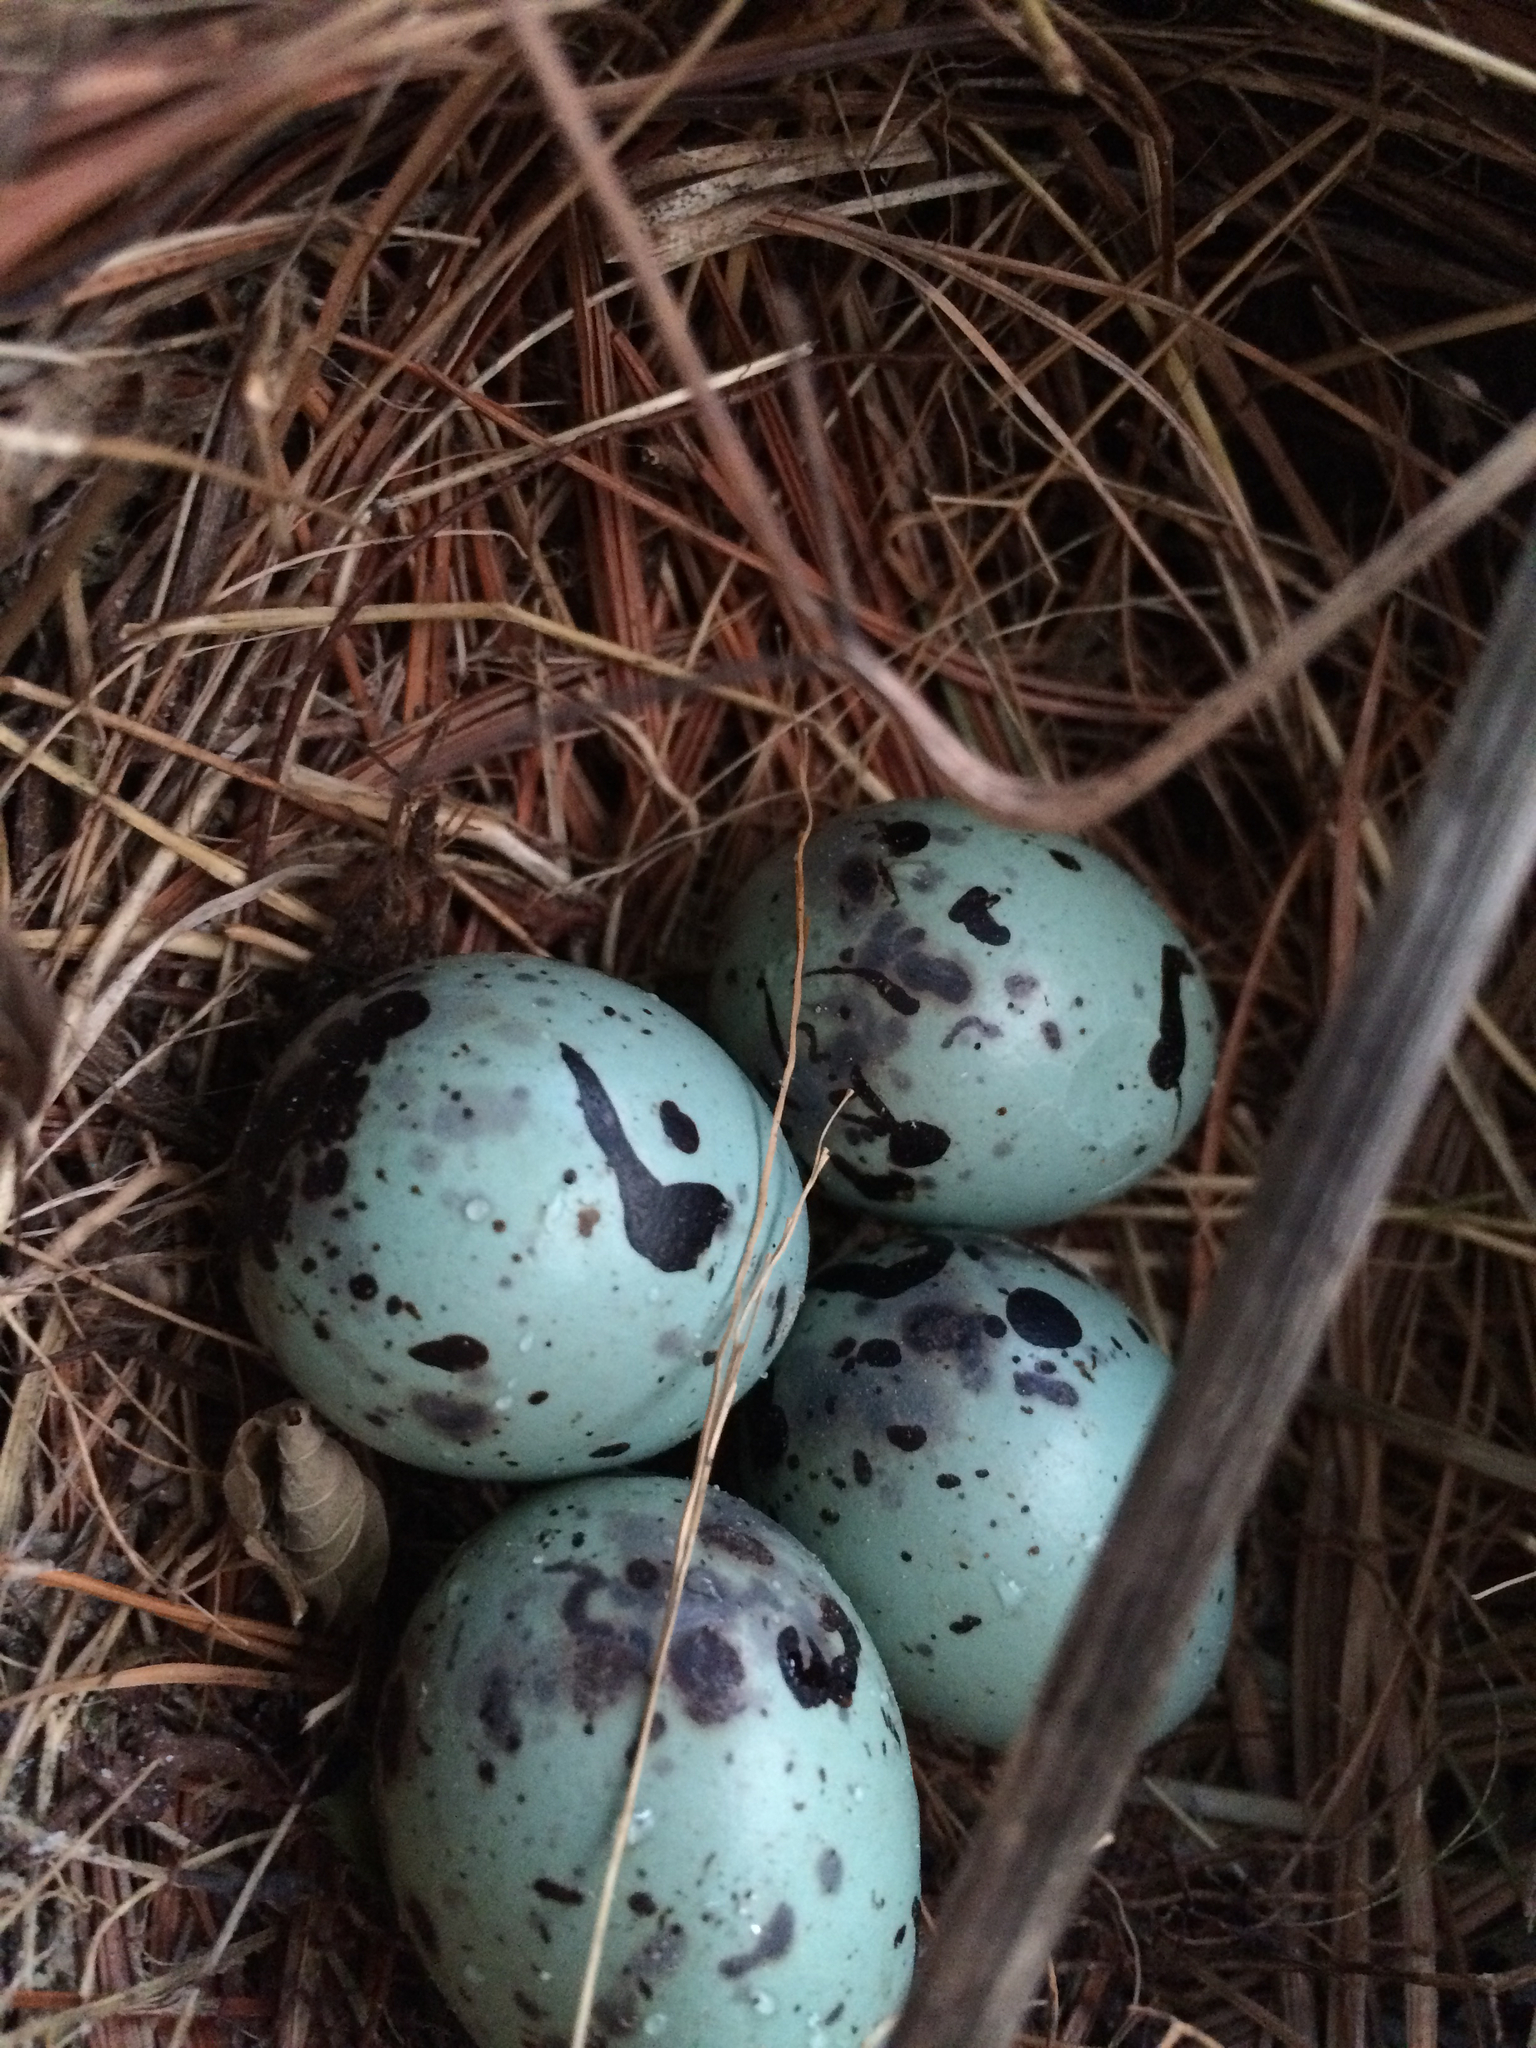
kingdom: Animalia
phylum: Chordata
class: Aves
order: Passeriformes
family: Turdidae
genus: Turdus
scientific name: Turdus migratorius
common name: American robin
